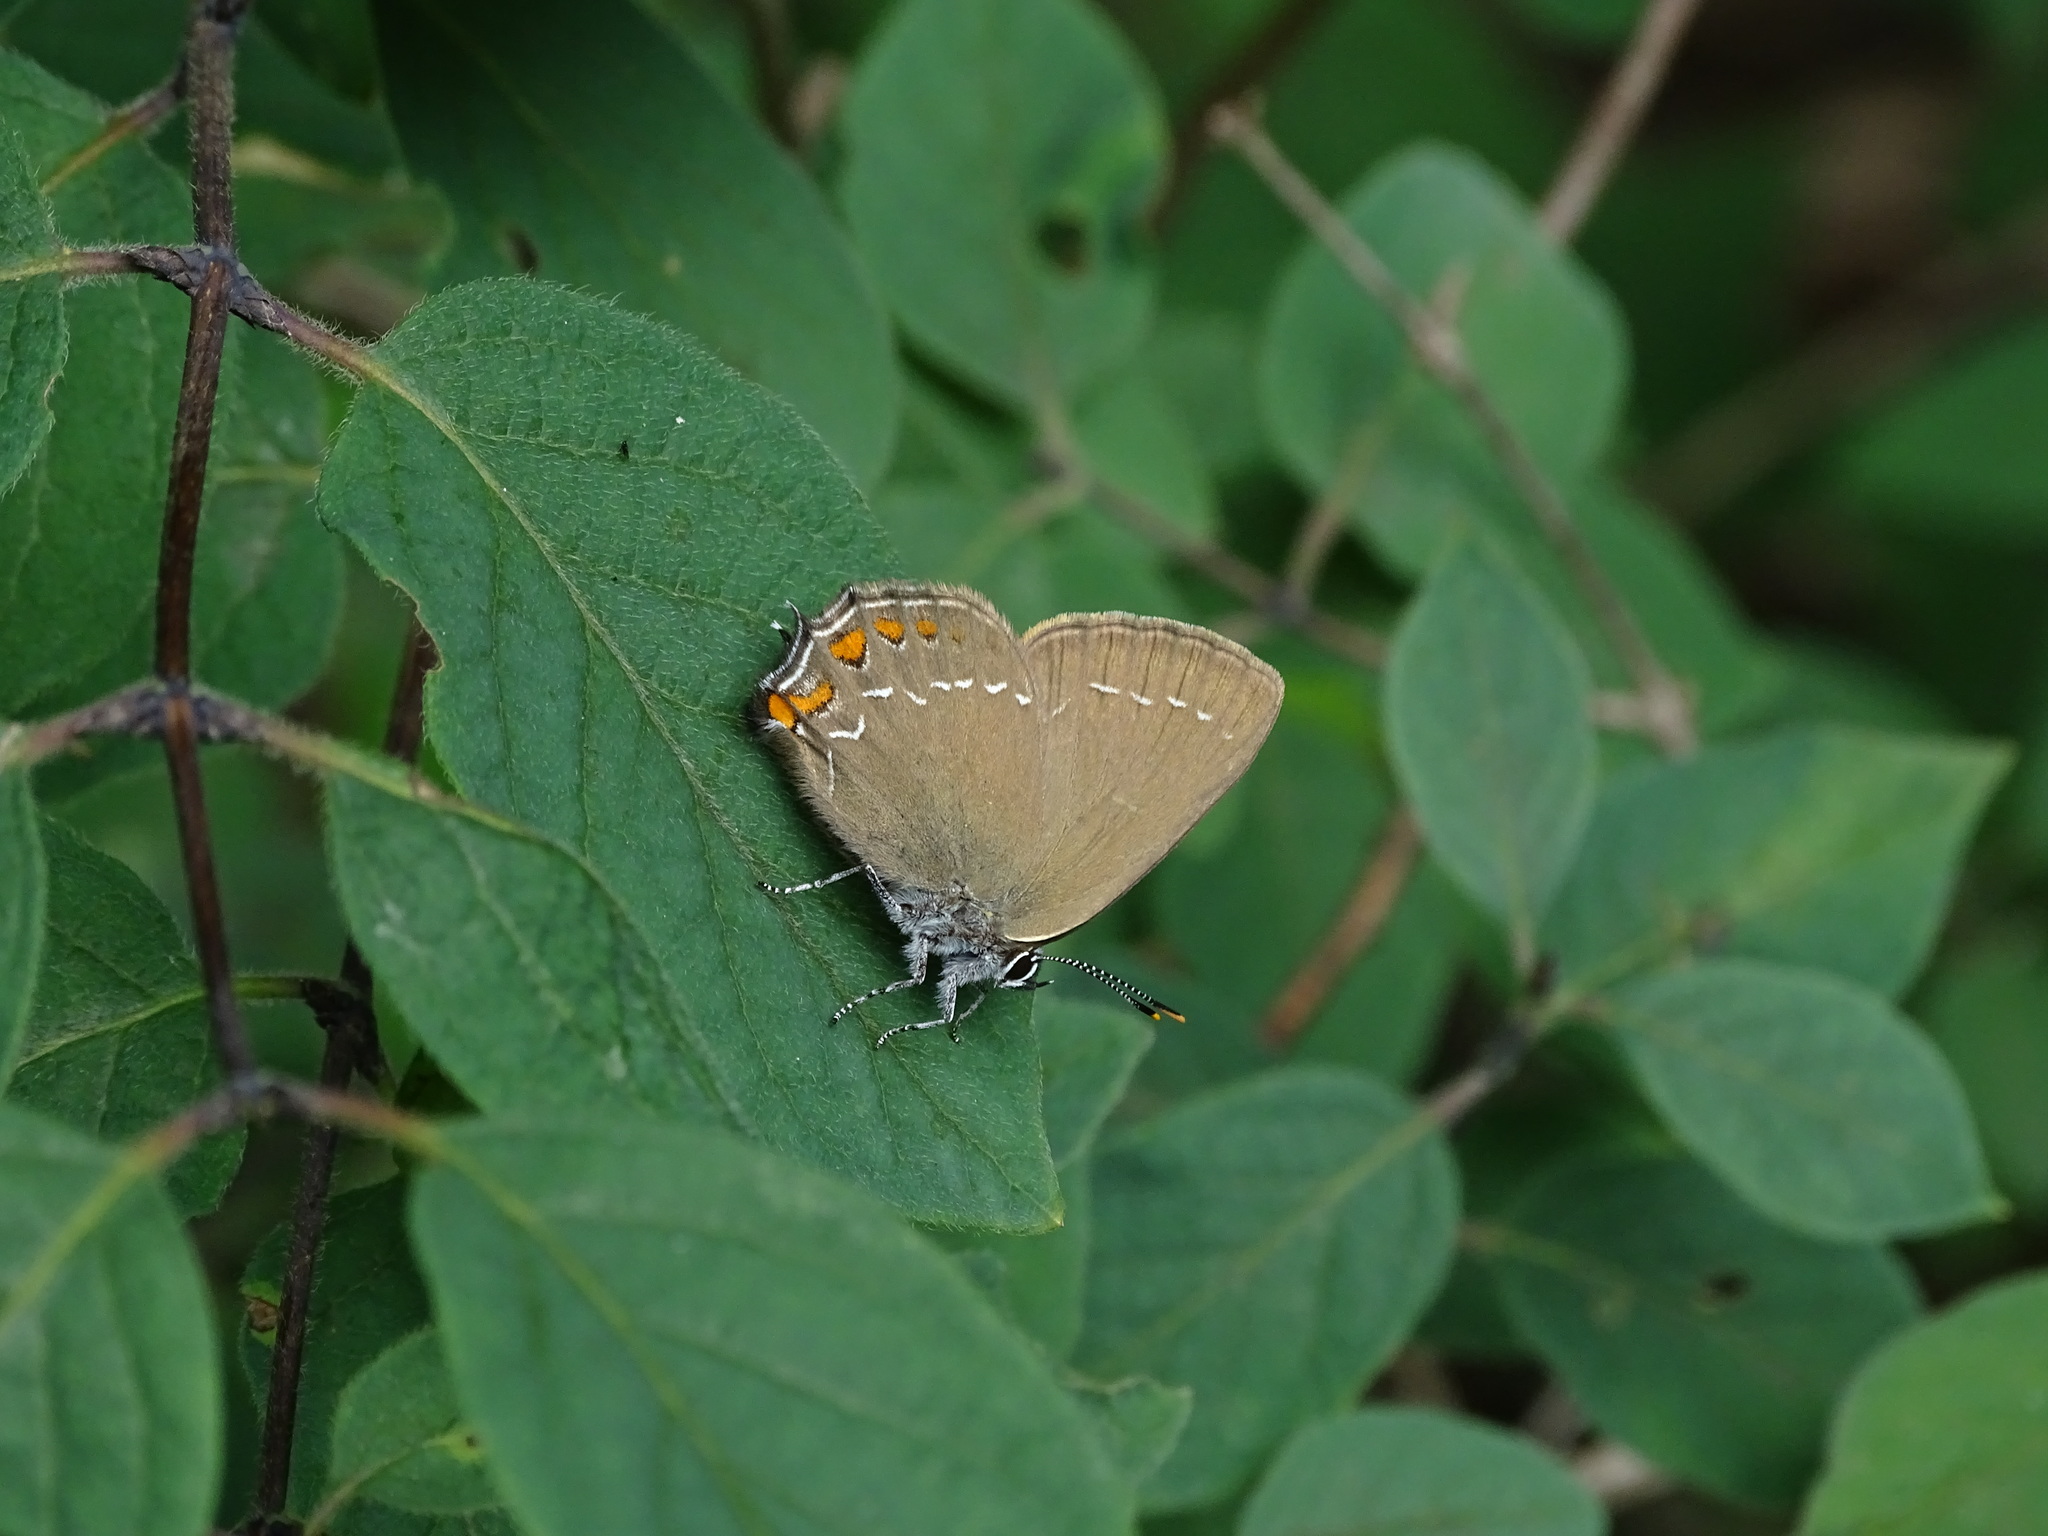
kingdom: Animalia
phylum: Arthropoda
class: Insecta
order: Lepidoptera
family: Lycaenidae
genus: Nordmannia
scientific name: Nordmannia ilicis
